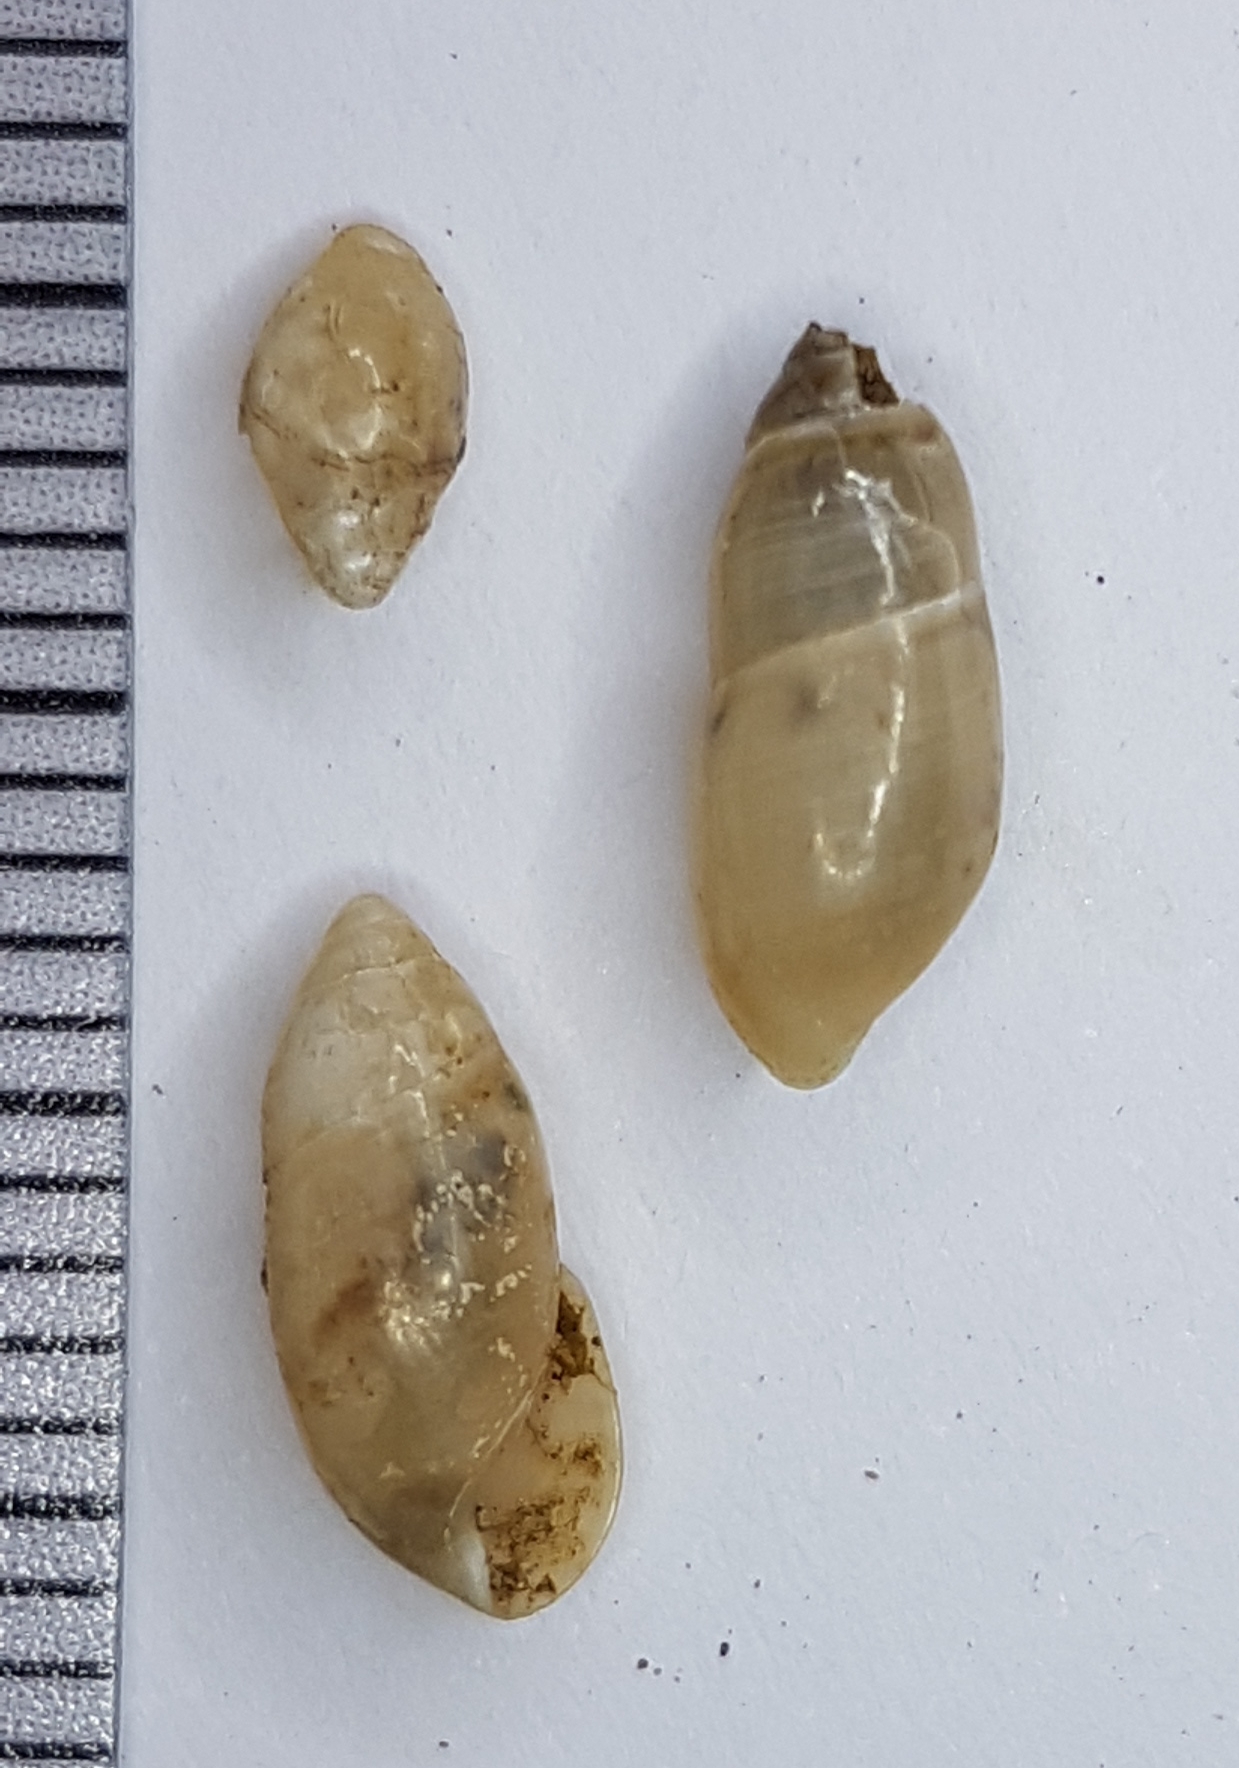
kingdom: Animalia
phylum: Mollusca
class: Gastropoda
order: Stylommatophora
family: Ferussaciidae
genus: Ferussacia
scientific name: Ferussacia folliculum
